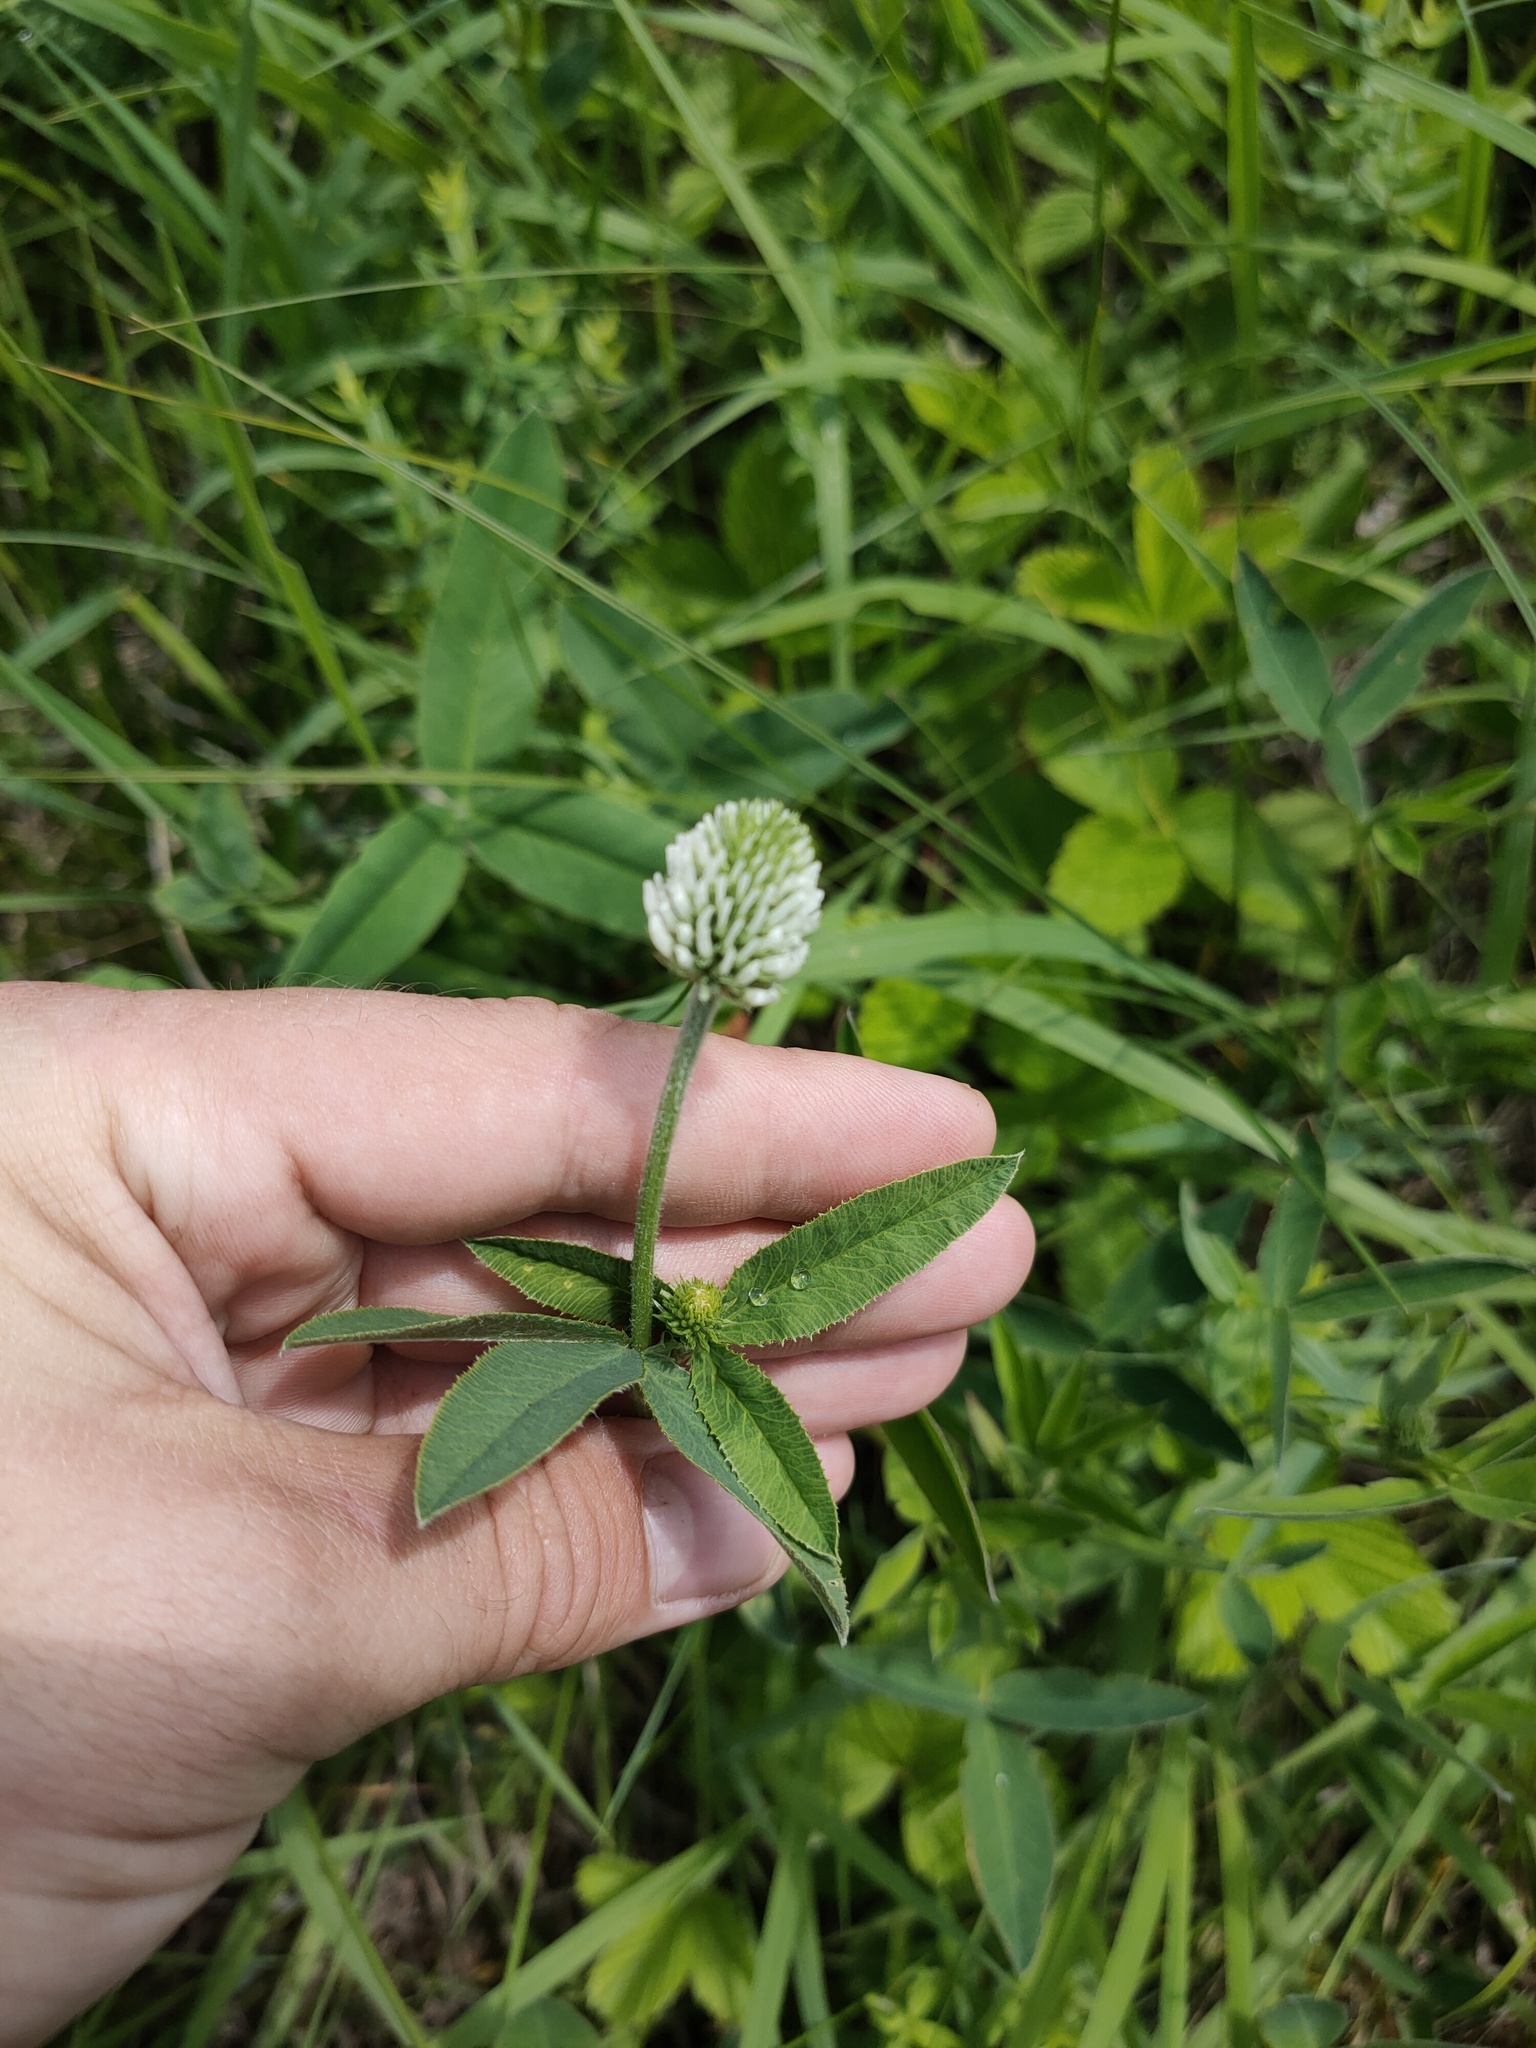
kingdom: Plantae
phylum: Tracheophyta
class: Magnoliopsida
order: Fabales
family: Fabaceae
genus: Trifolium
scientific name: Trifolium montanum
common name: Mountain clover
